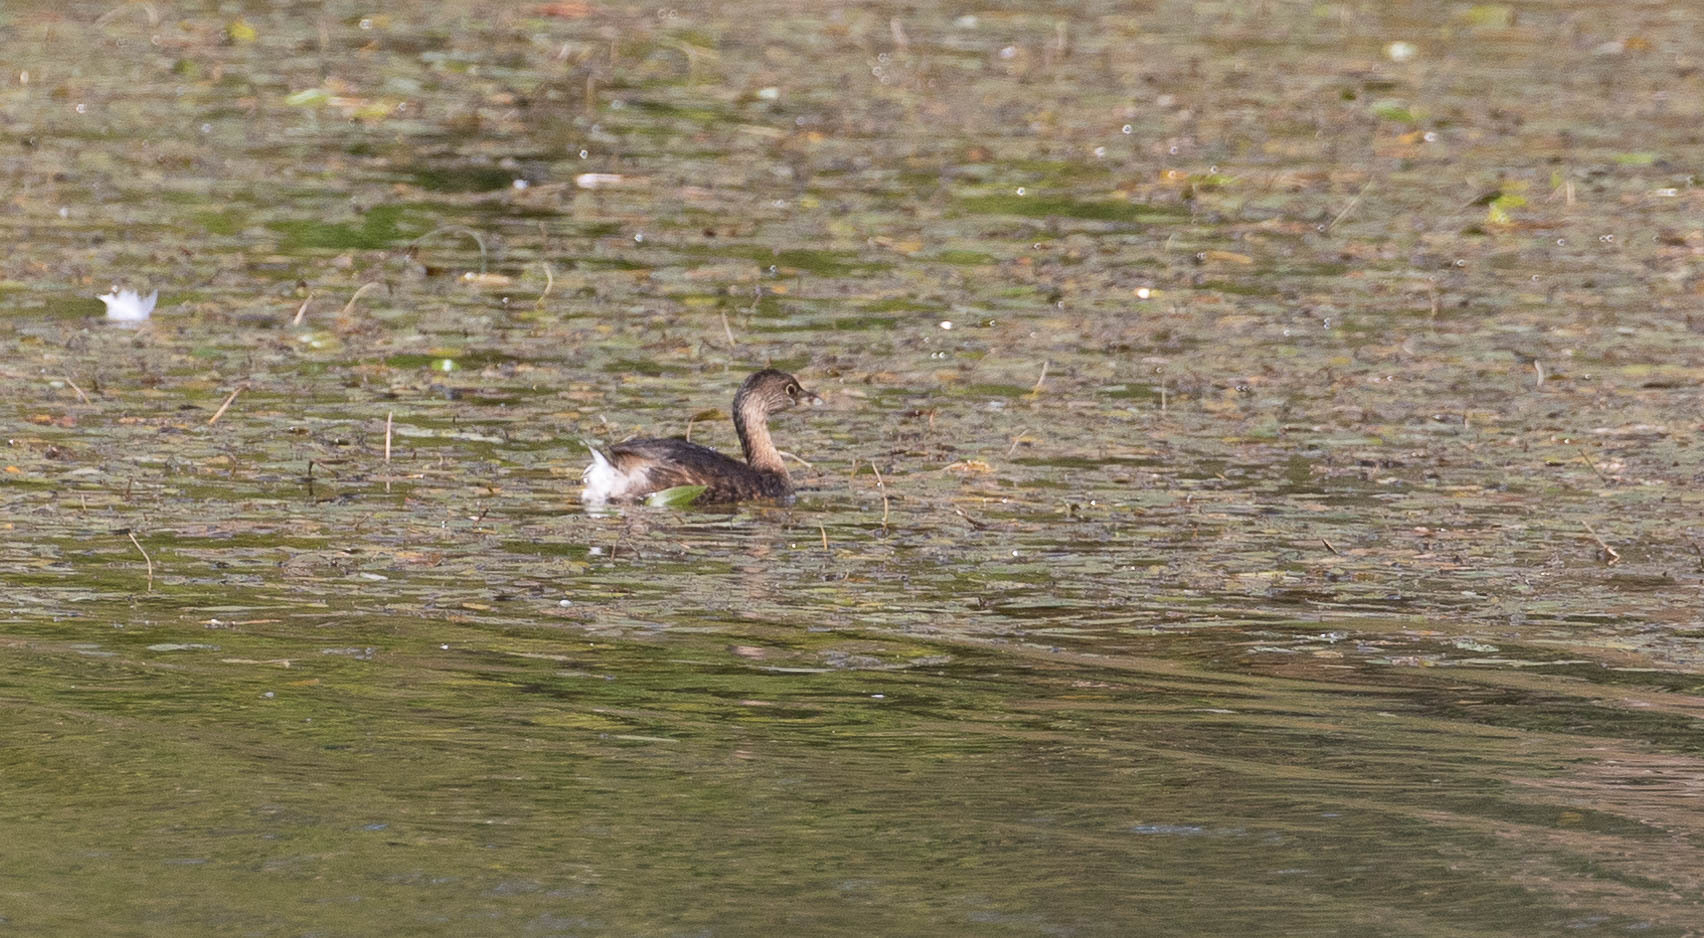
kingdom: Animalia
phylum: Chordata
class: Aves
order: Podicipediformes
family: Podicipedidae
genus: Podilymbus
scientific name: Podilymbus podiceps
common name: Pied-billed grebe
